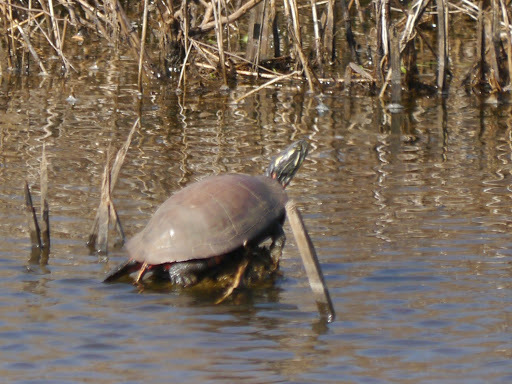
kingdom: Animalia
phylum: Chordata
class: Testudines
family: Emydidae
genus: Chrysemys
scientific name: Chrysemys picta
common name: Painted turtle
